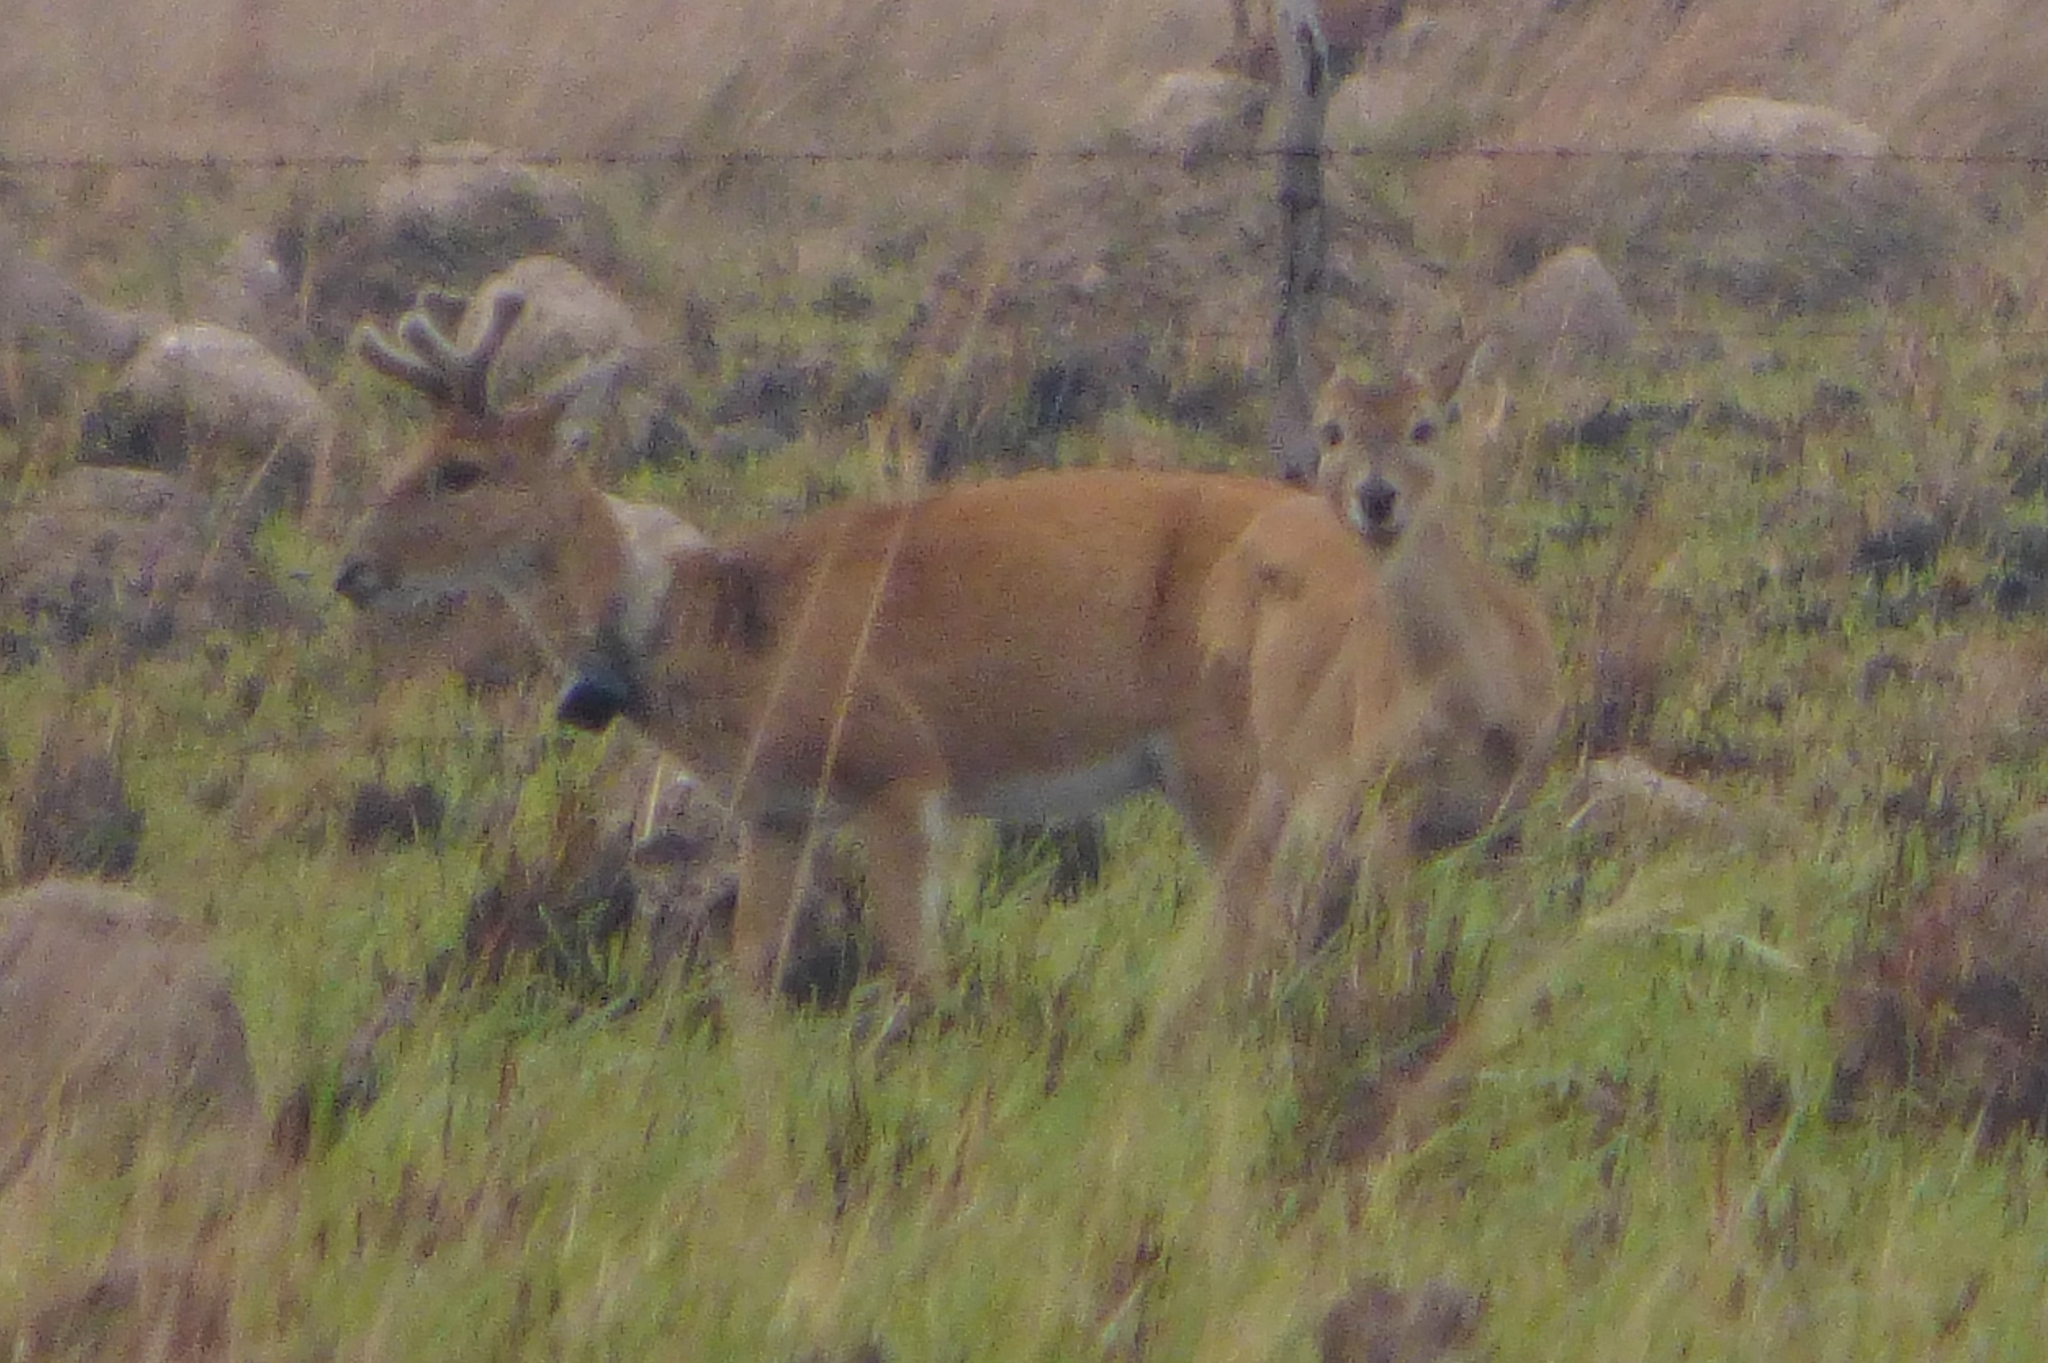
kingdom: Animalia
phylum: Chordata
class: Mammalia
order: Artiodactyla
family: Cervidae
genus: Ozotoceros
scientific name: Ozotoceros bezoarticus
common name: Pampas deer
